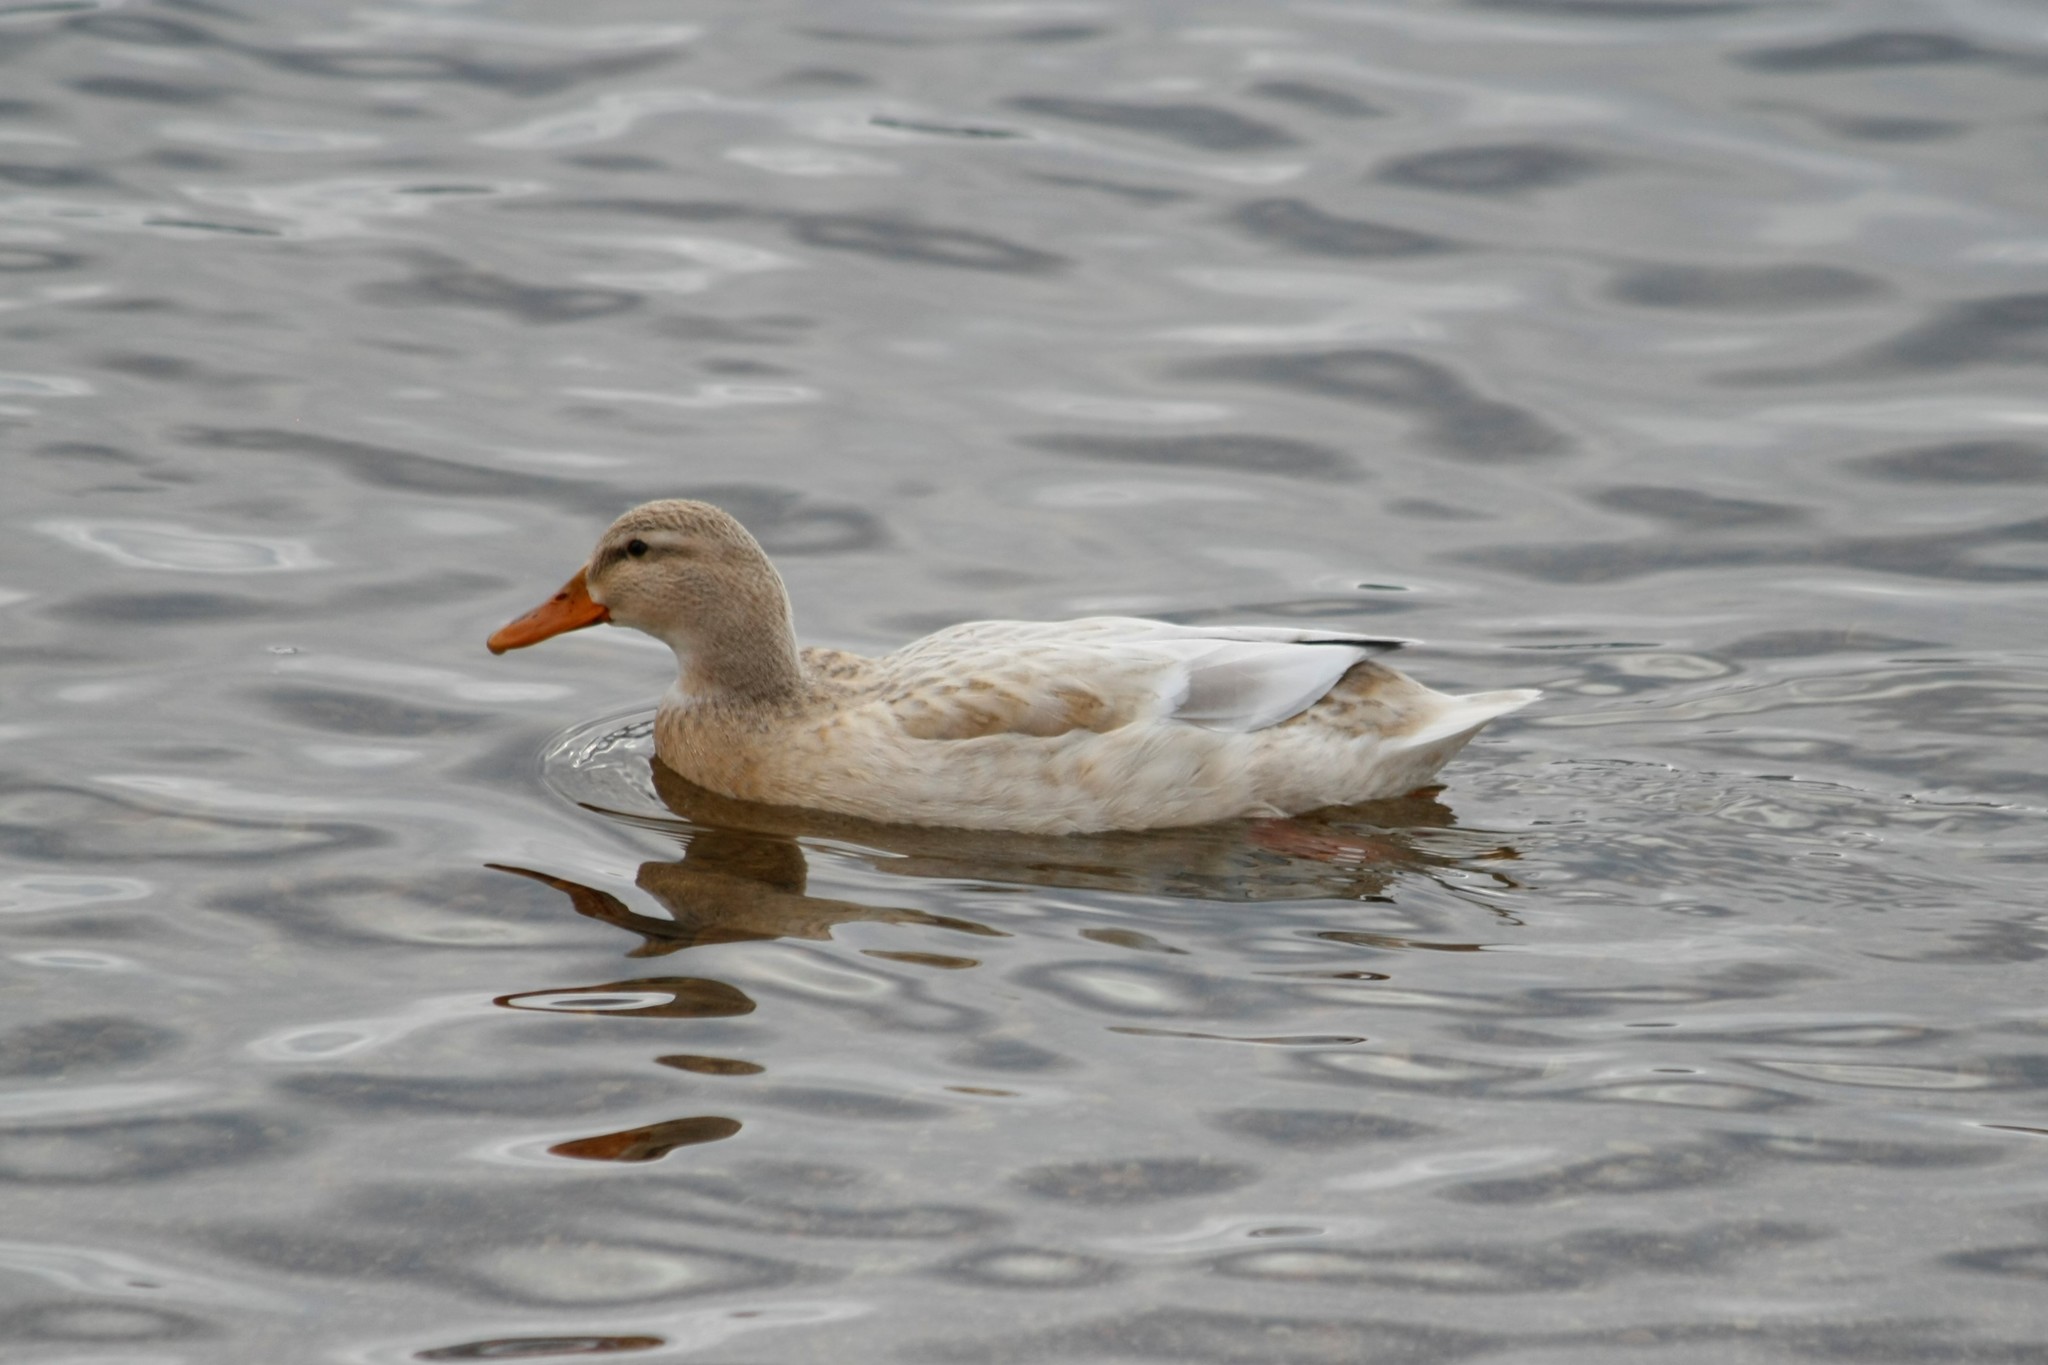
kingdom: Animalia
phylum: Chordata
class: Aves
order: Anseriformes
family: Anatidae
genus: Anas
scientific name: Anas platyrhynchos
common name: Mallard
